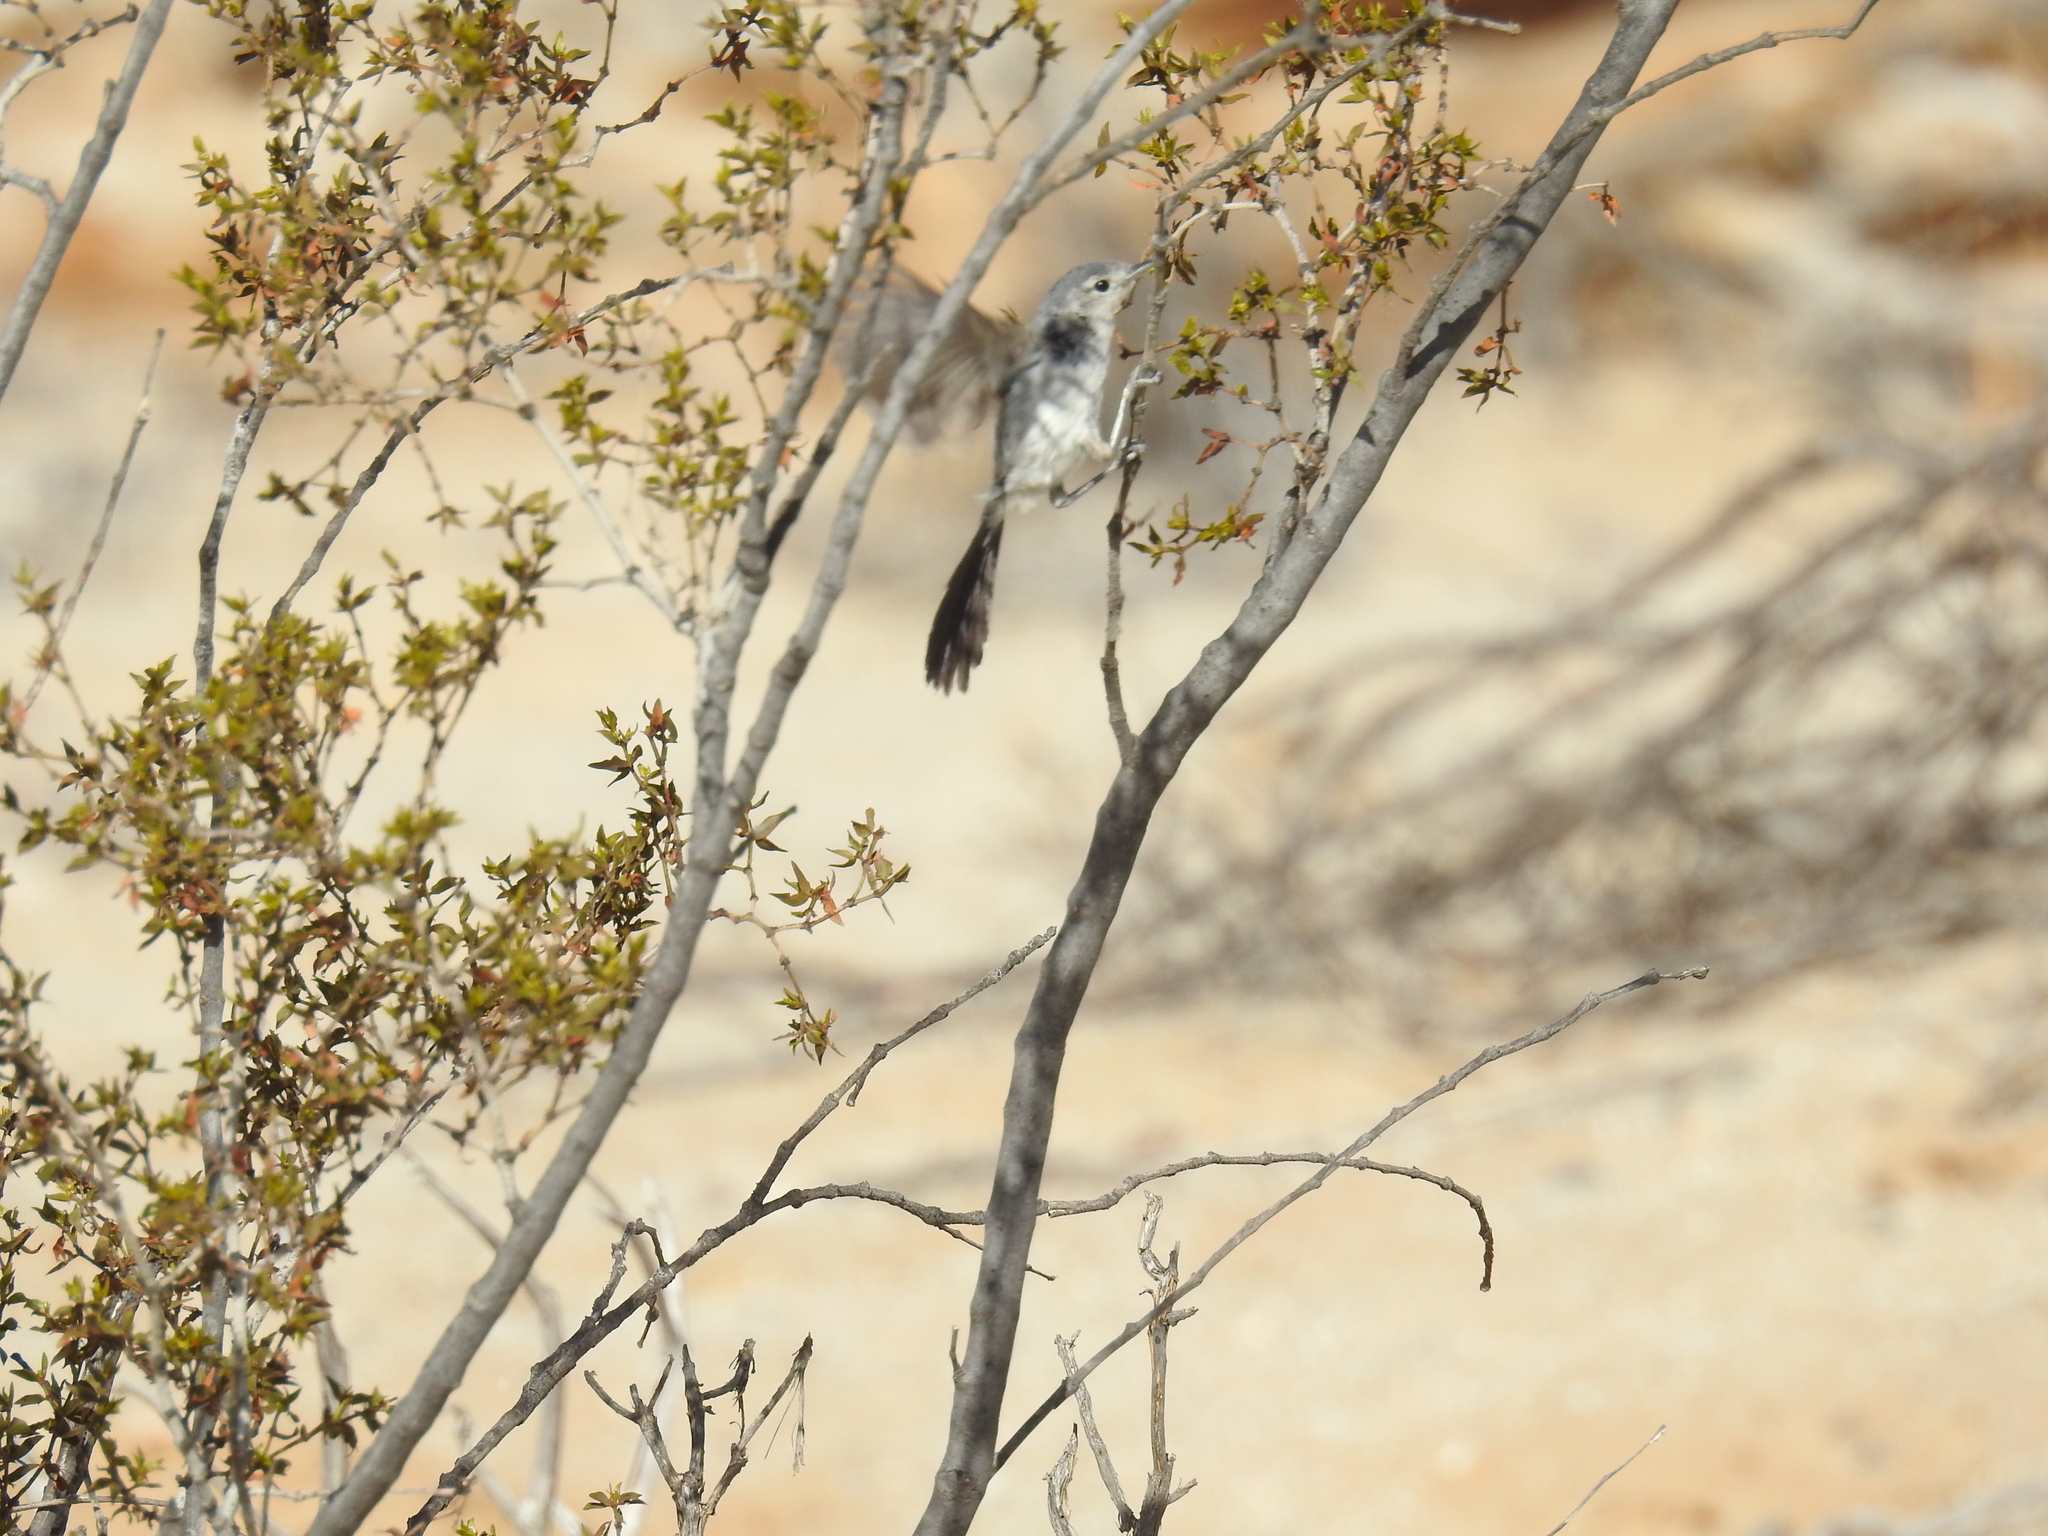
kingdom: Animalia
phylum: Chordata
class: Aves
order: Passeriformes
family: Polioptilidae
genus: Polioptila
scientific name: Polioptila melanura
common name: Black-tailed gnatcatcher
